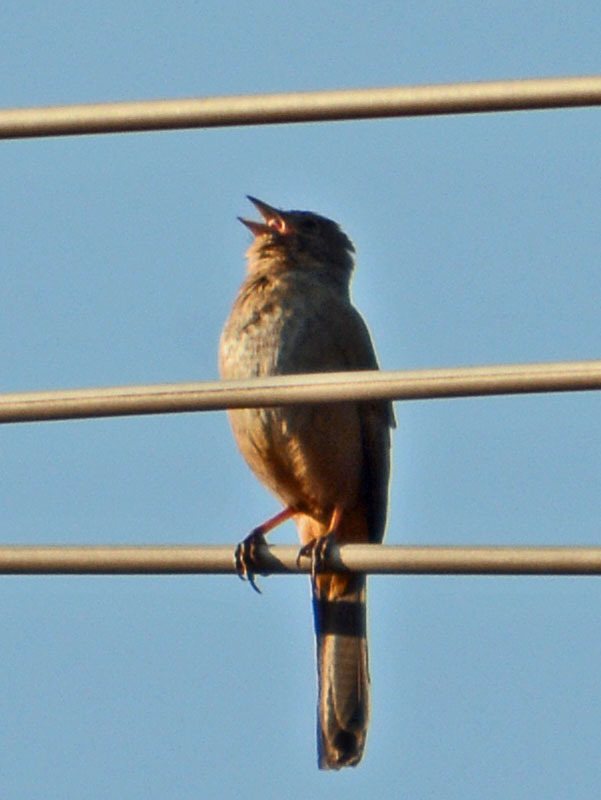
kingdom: Animalia
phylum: Chordata
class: Aves
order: Passeriformes
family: Passerellidae
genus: Melozone
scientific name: Melozone fusca
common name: Canyon towhee
